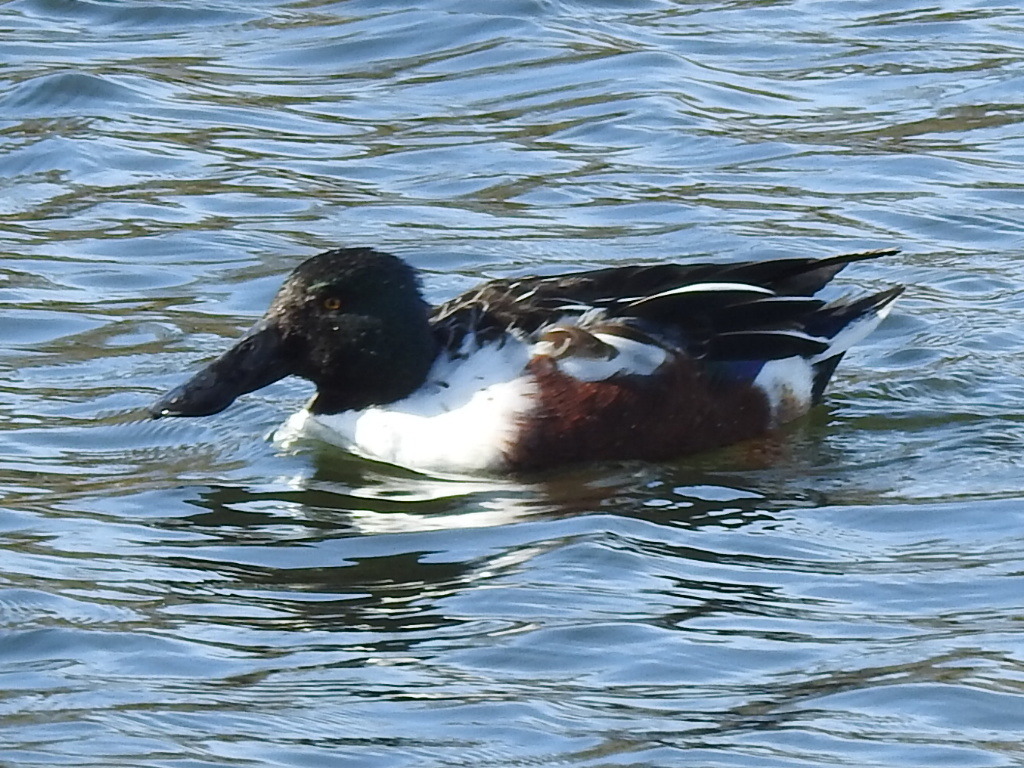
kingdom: Animalia
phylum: Chordata
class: Aves
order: Anseriformes
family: Anatidae
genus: Spatula
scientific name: Spatula clypeata
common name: Northern shoveler
